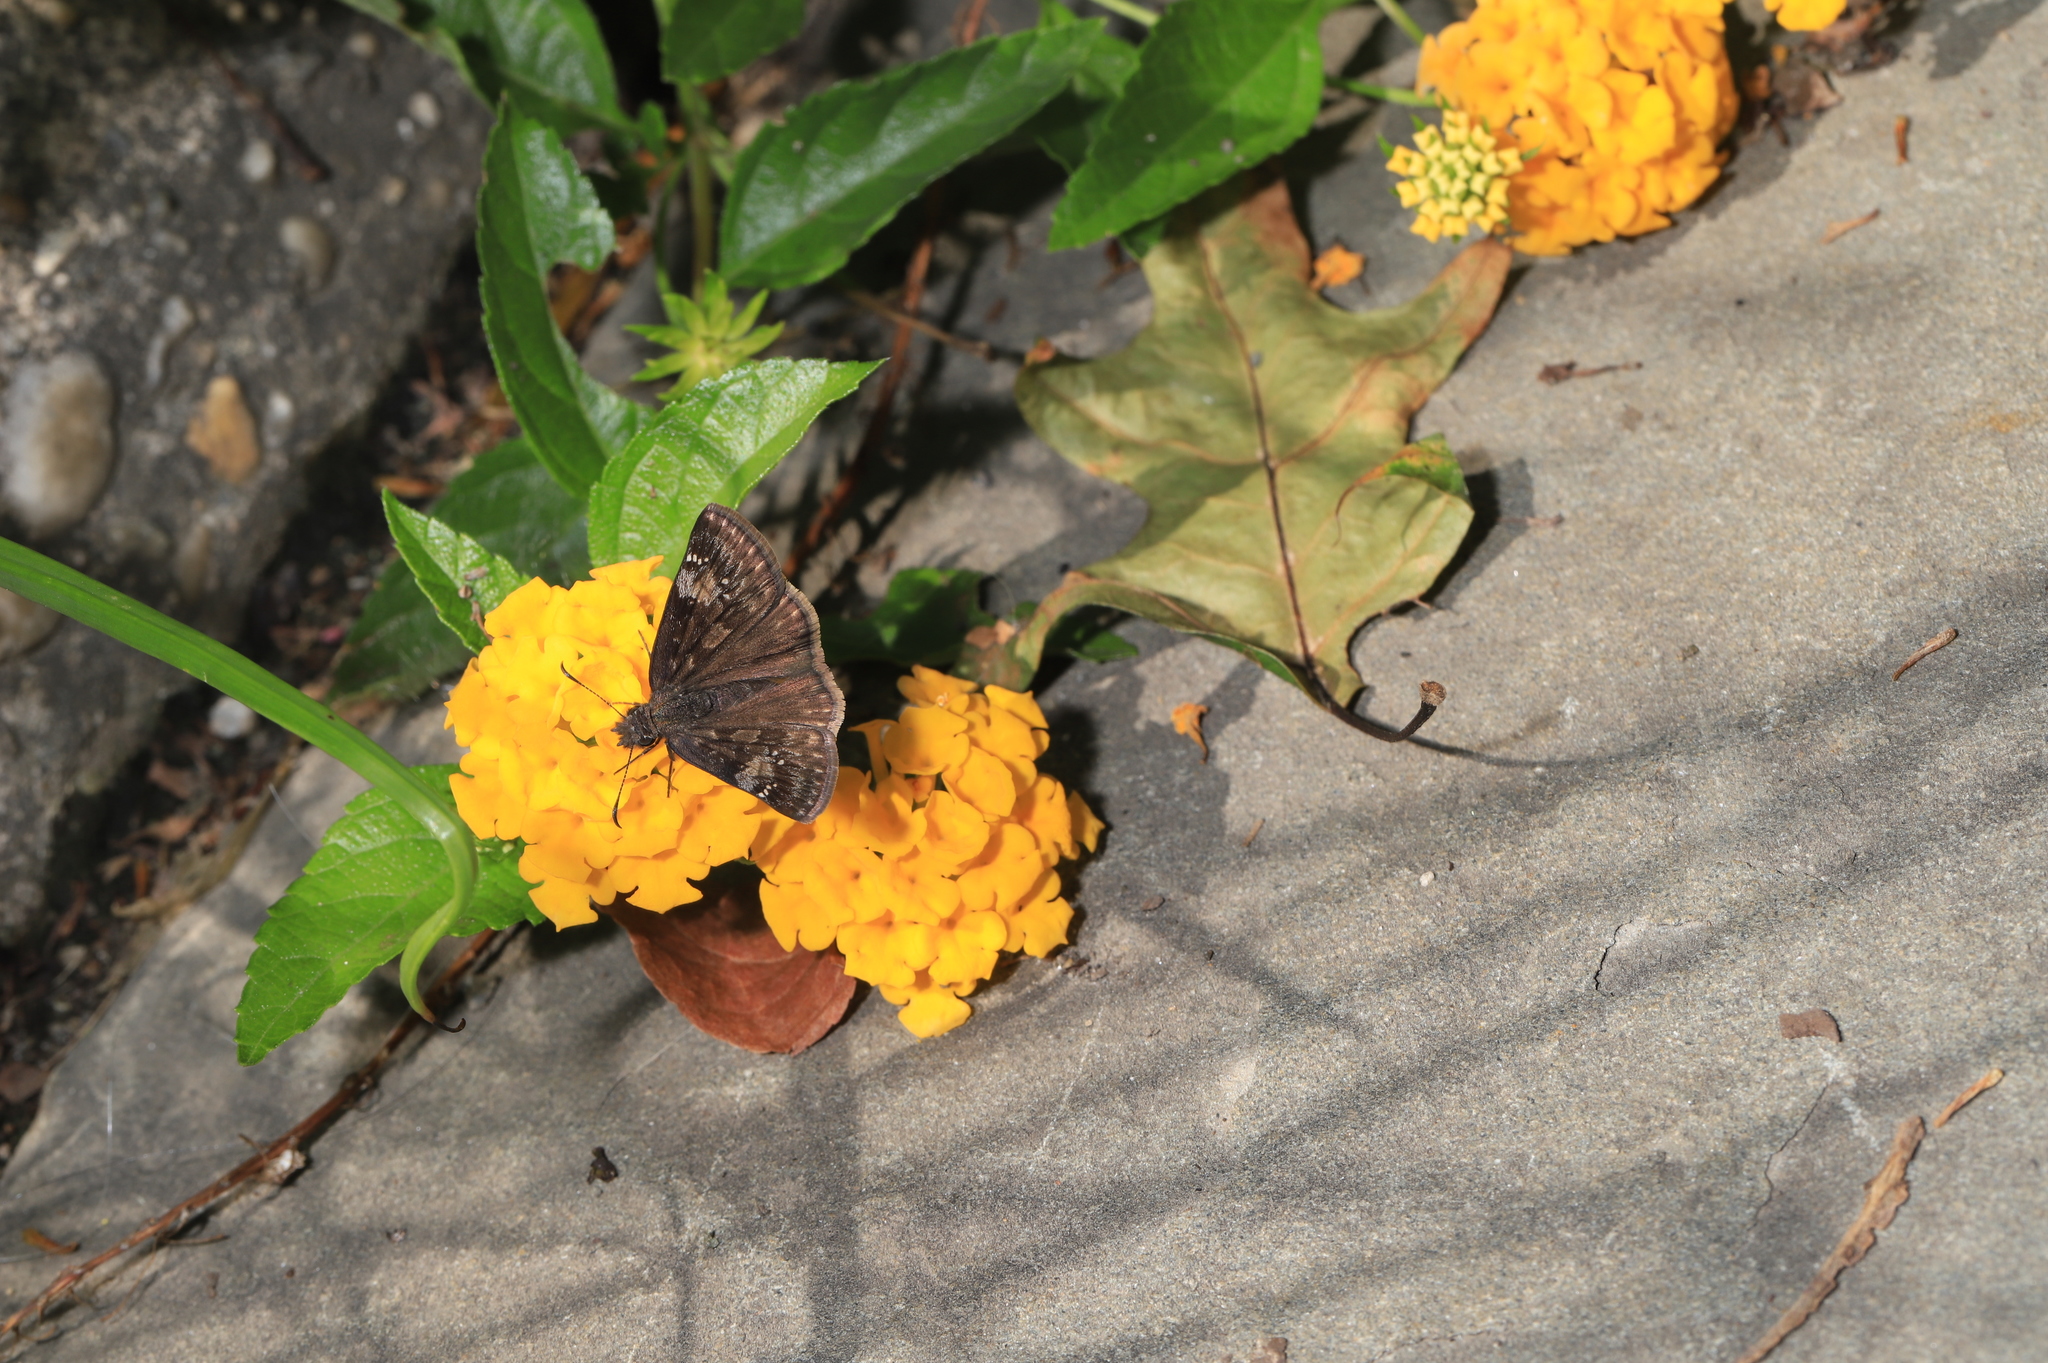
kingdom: Animalia
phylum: Arthropoda
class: Insecta
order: Lepidoptera
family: Hesperiidae
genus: Erynnis
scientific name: Erynnis baptisiae
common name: Wild indigo duskywing
